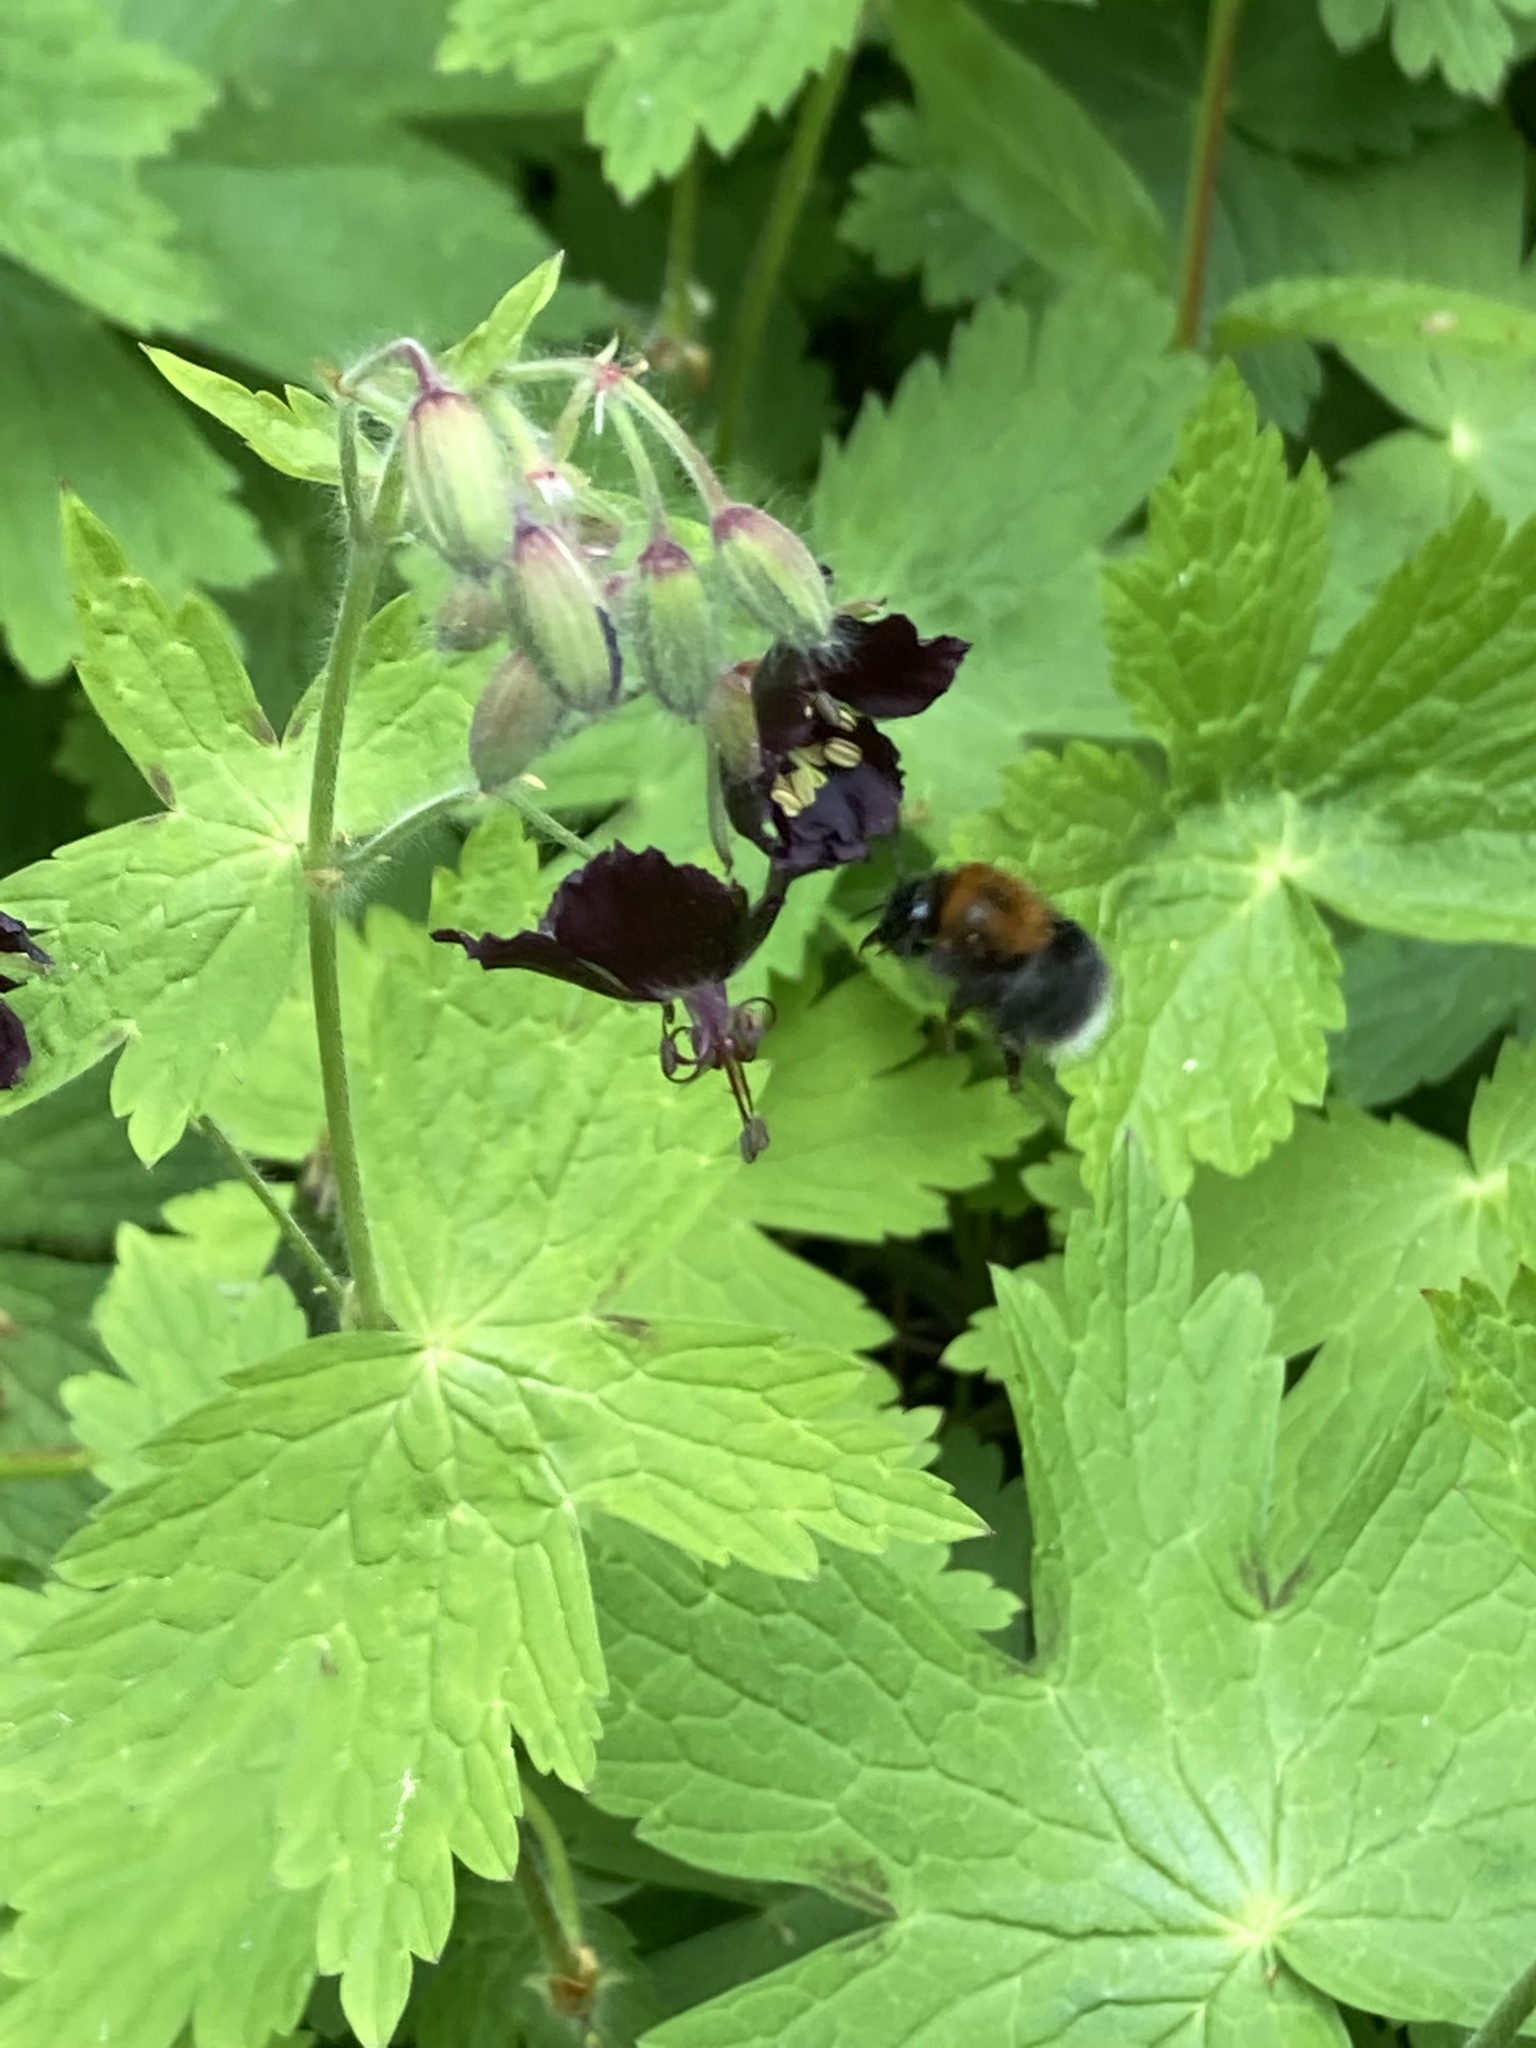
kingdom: Animalia
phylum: Arthropoda
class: Insecta
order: Hymenoptera
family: Apidae
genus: Bombus
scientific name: Bombus hypnorum
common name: New garden bumblebee
